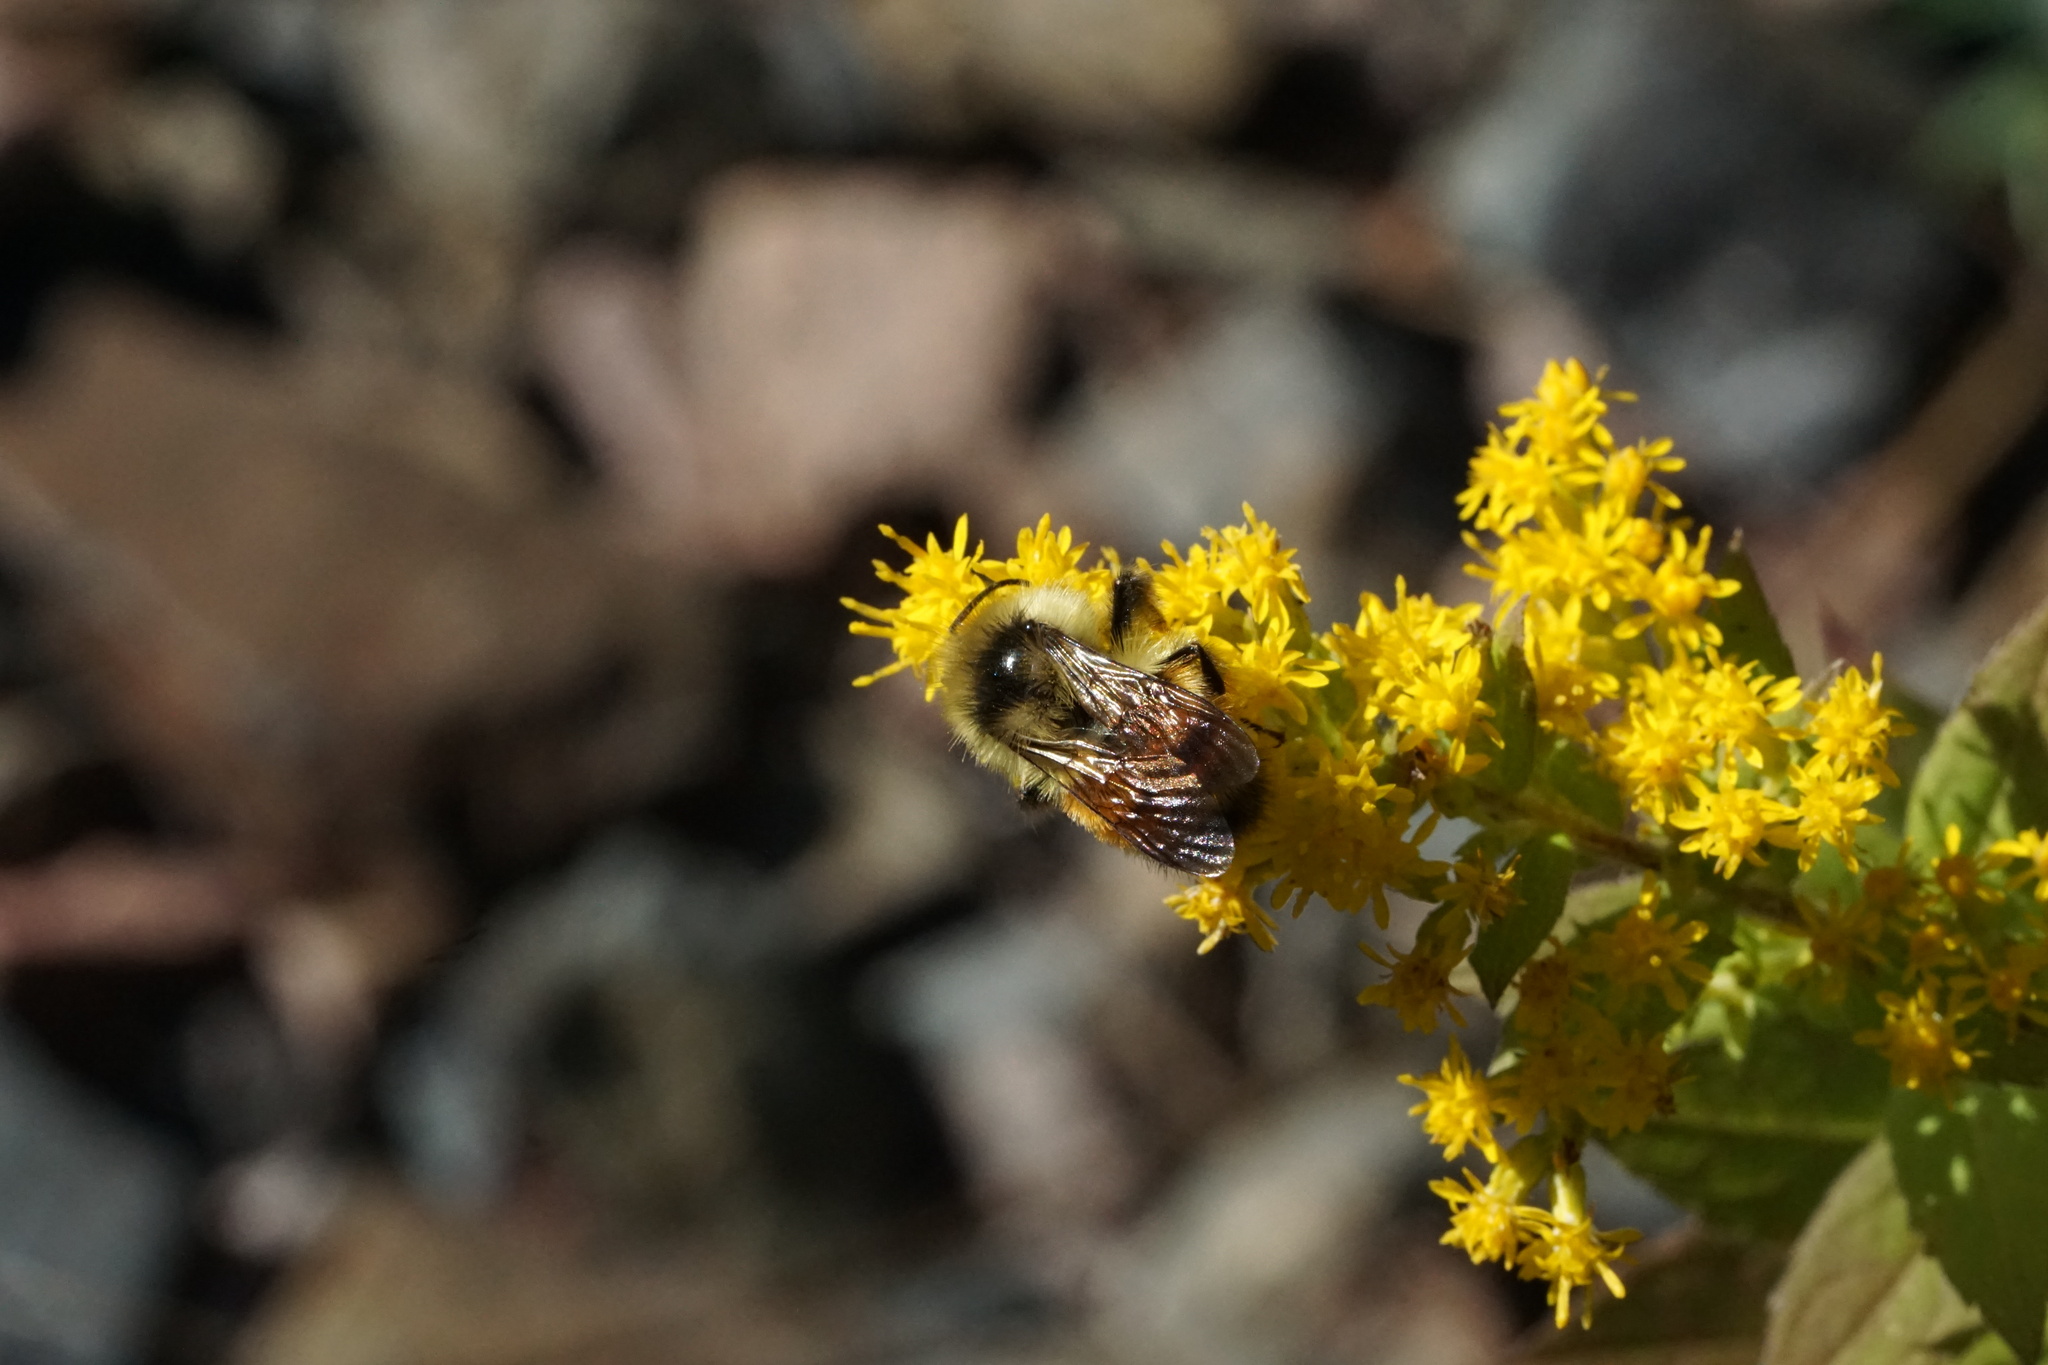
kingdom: Animalia
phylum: Arthropoda
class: Insecta
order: Hymenoptera
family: Apidae
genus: Bombus
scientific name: Bombus ternarius
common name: Tri-colored bumble bee
